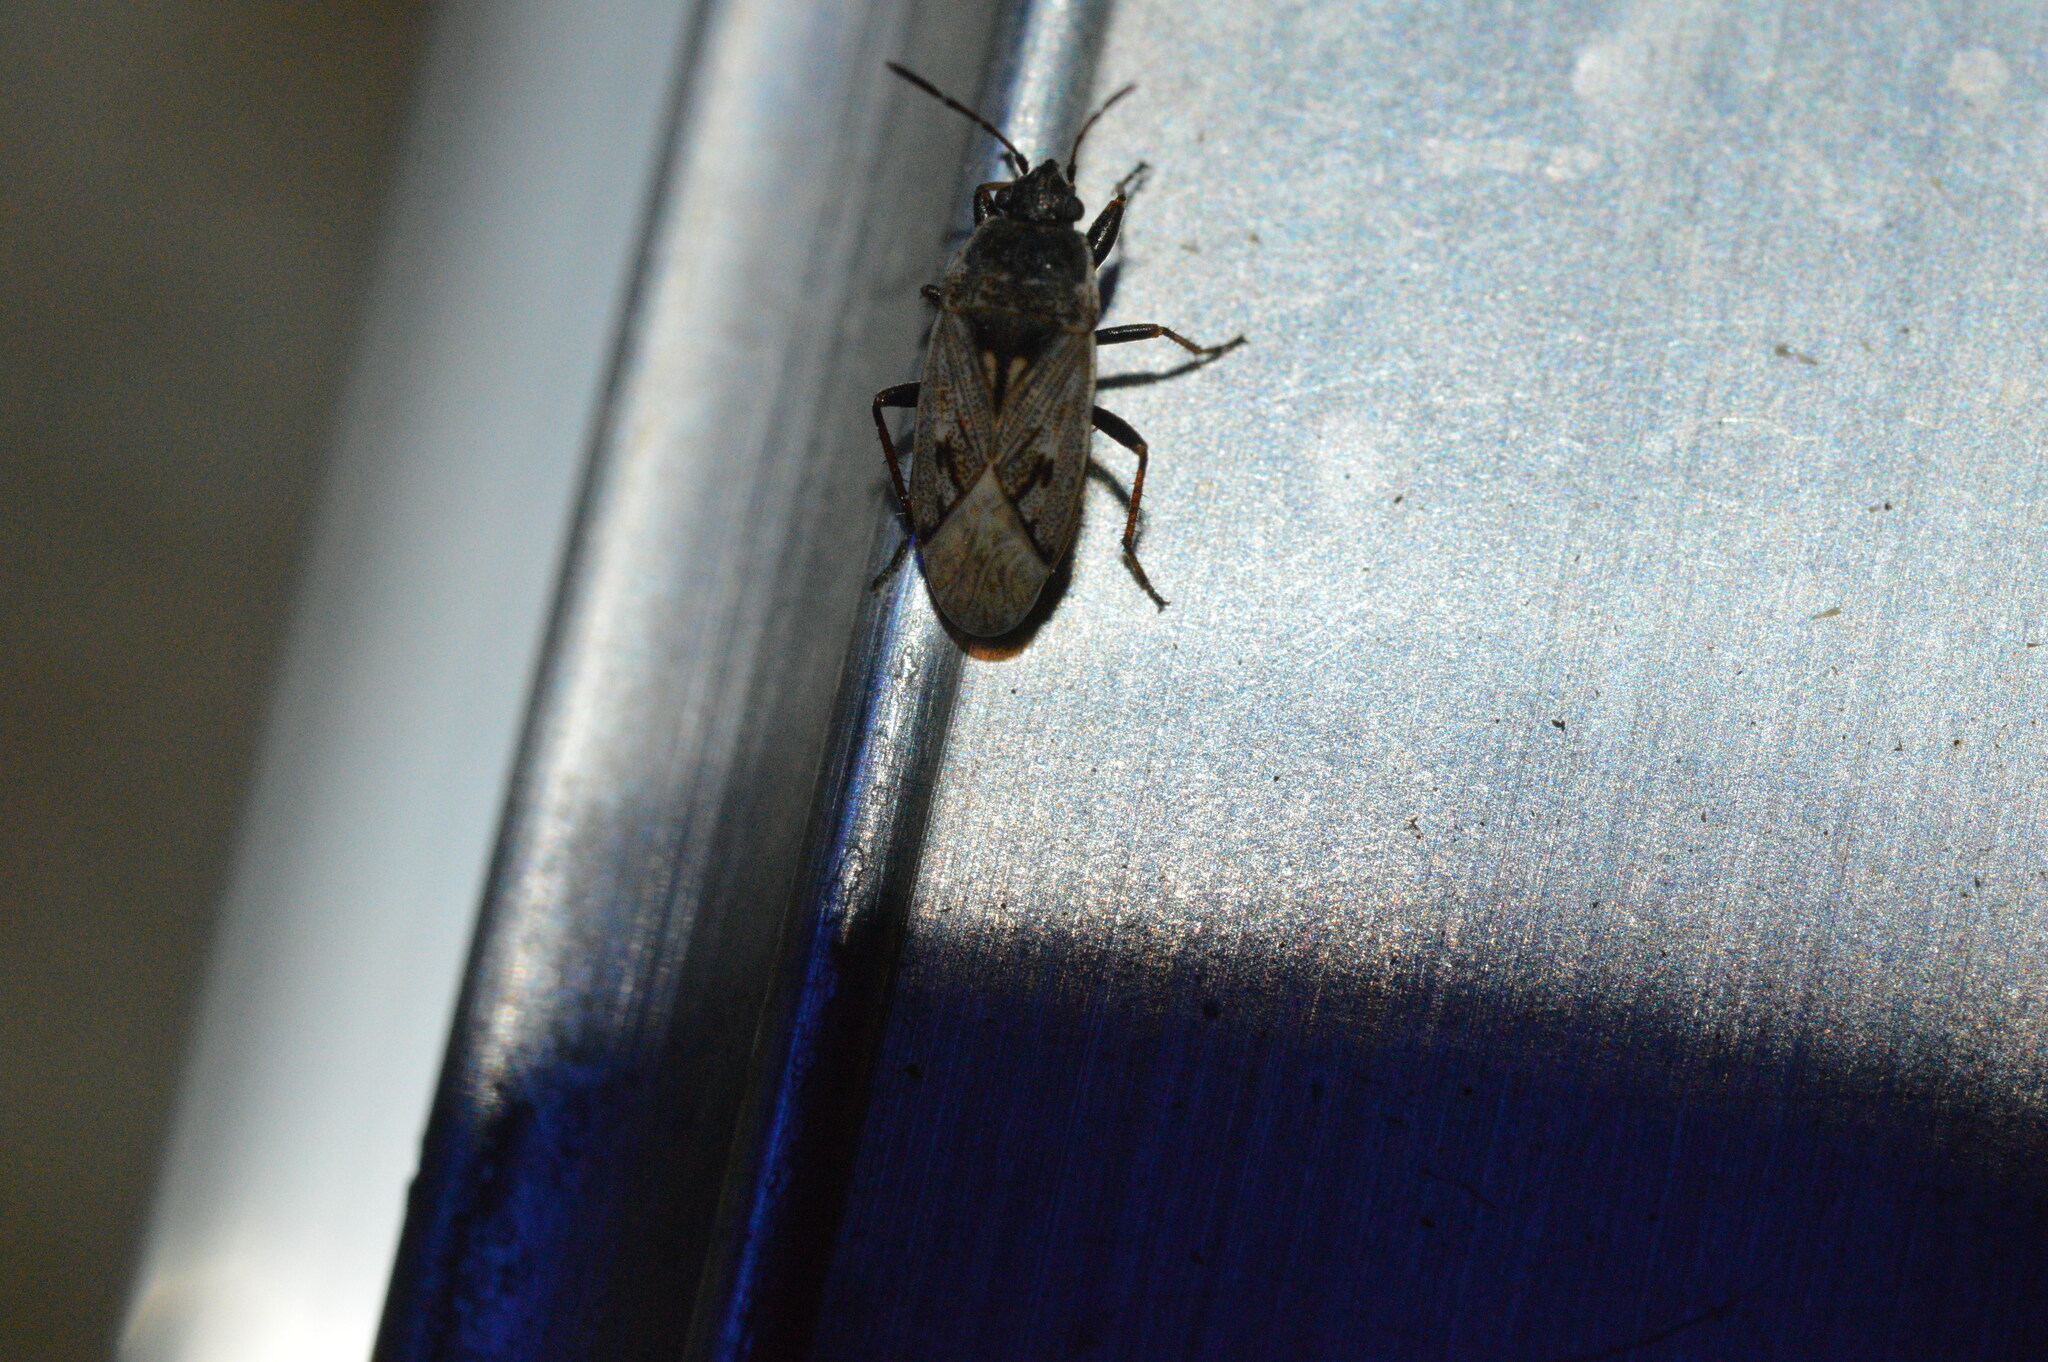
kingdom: Animalia
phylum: Arthropoda
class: Insecta
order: Hemiptera
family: Rhyparochromidae
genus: Sphragisticus
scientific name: Sphragisticus nebulosus
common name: Dirt-colored seed bug
